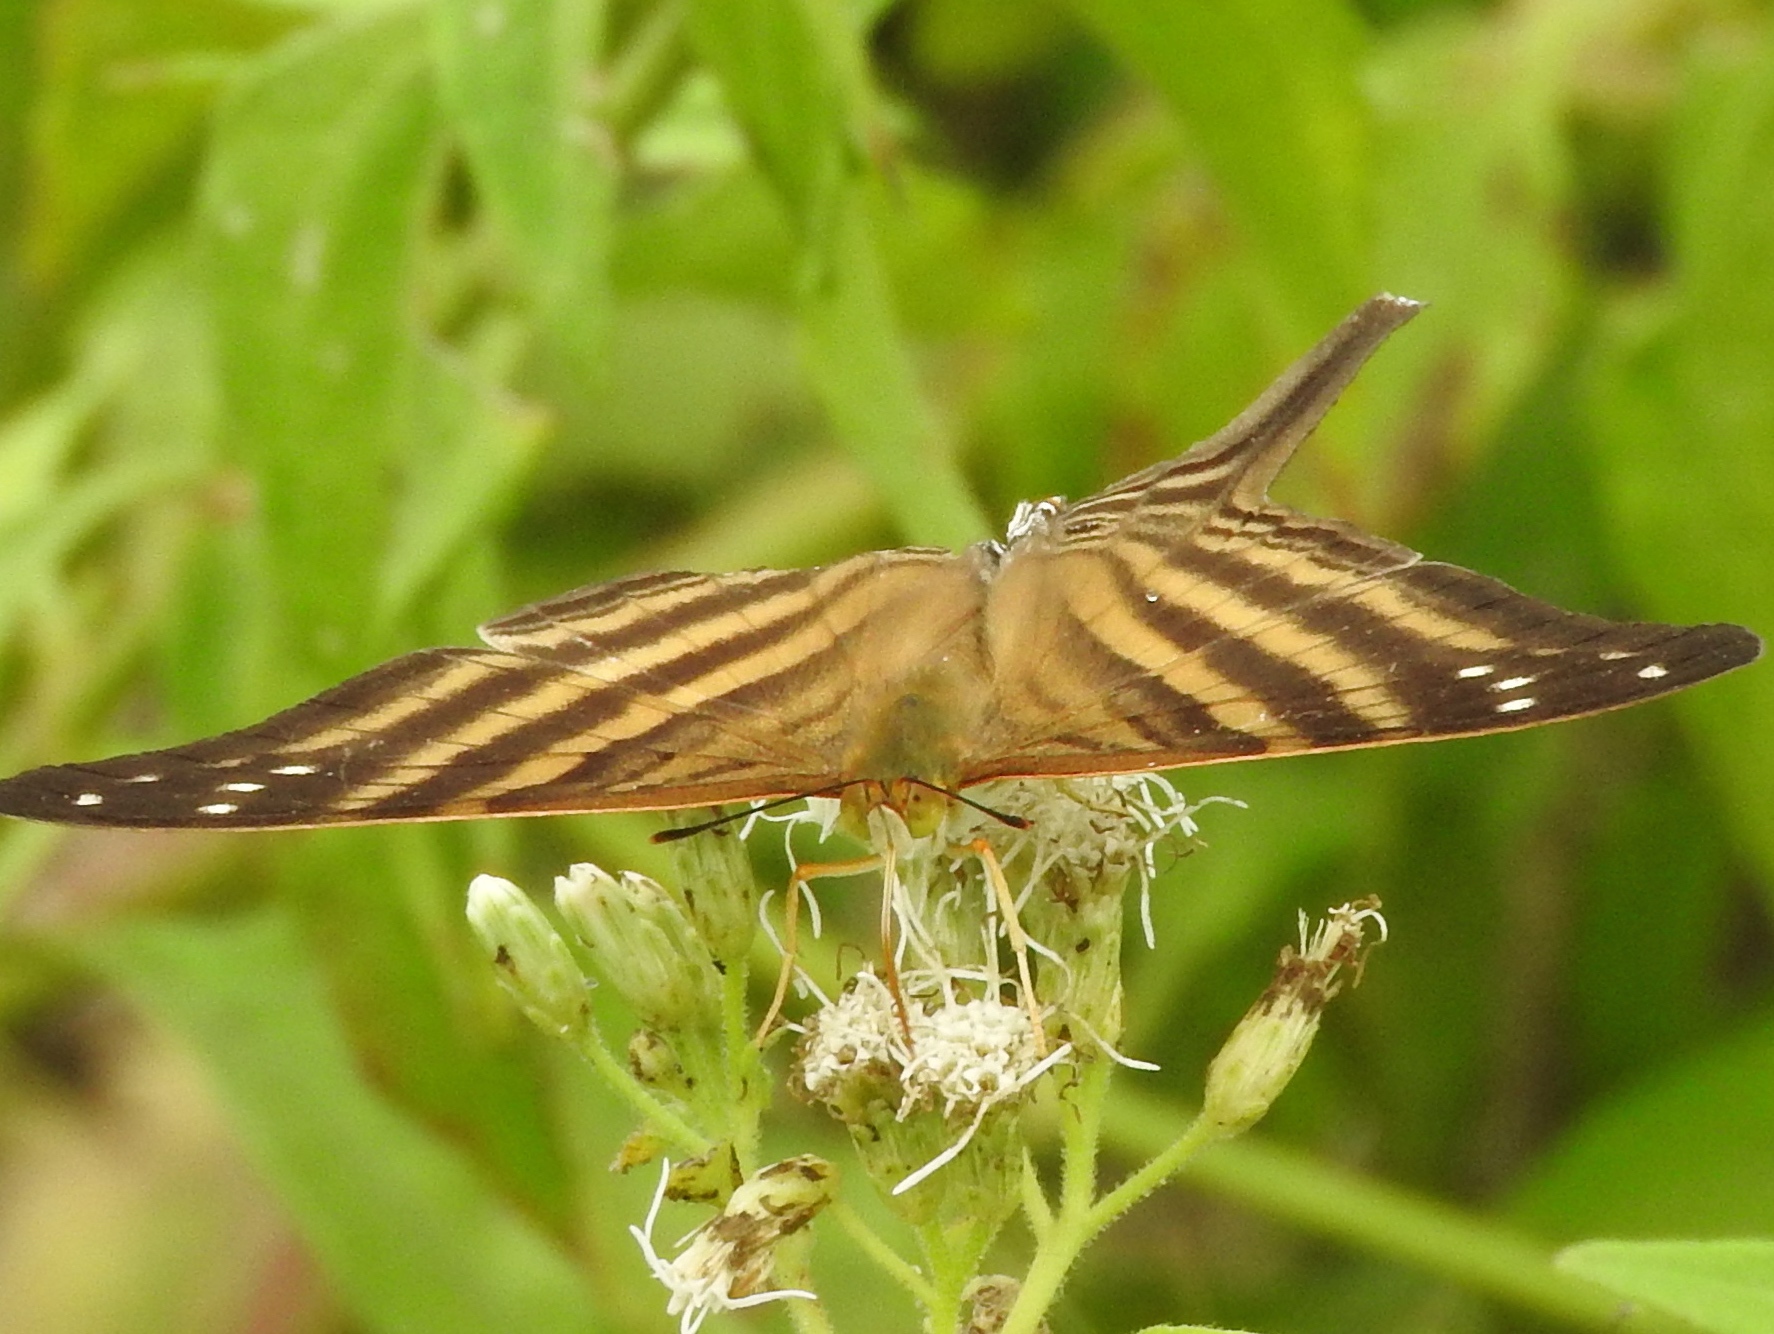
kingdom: Animalia
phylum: Arthropoda
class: Insecta
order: Lepidoptera
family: Nymphalidae
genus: Marpesia
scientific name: Marpesia chiron
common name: Many-banded daggerwing
